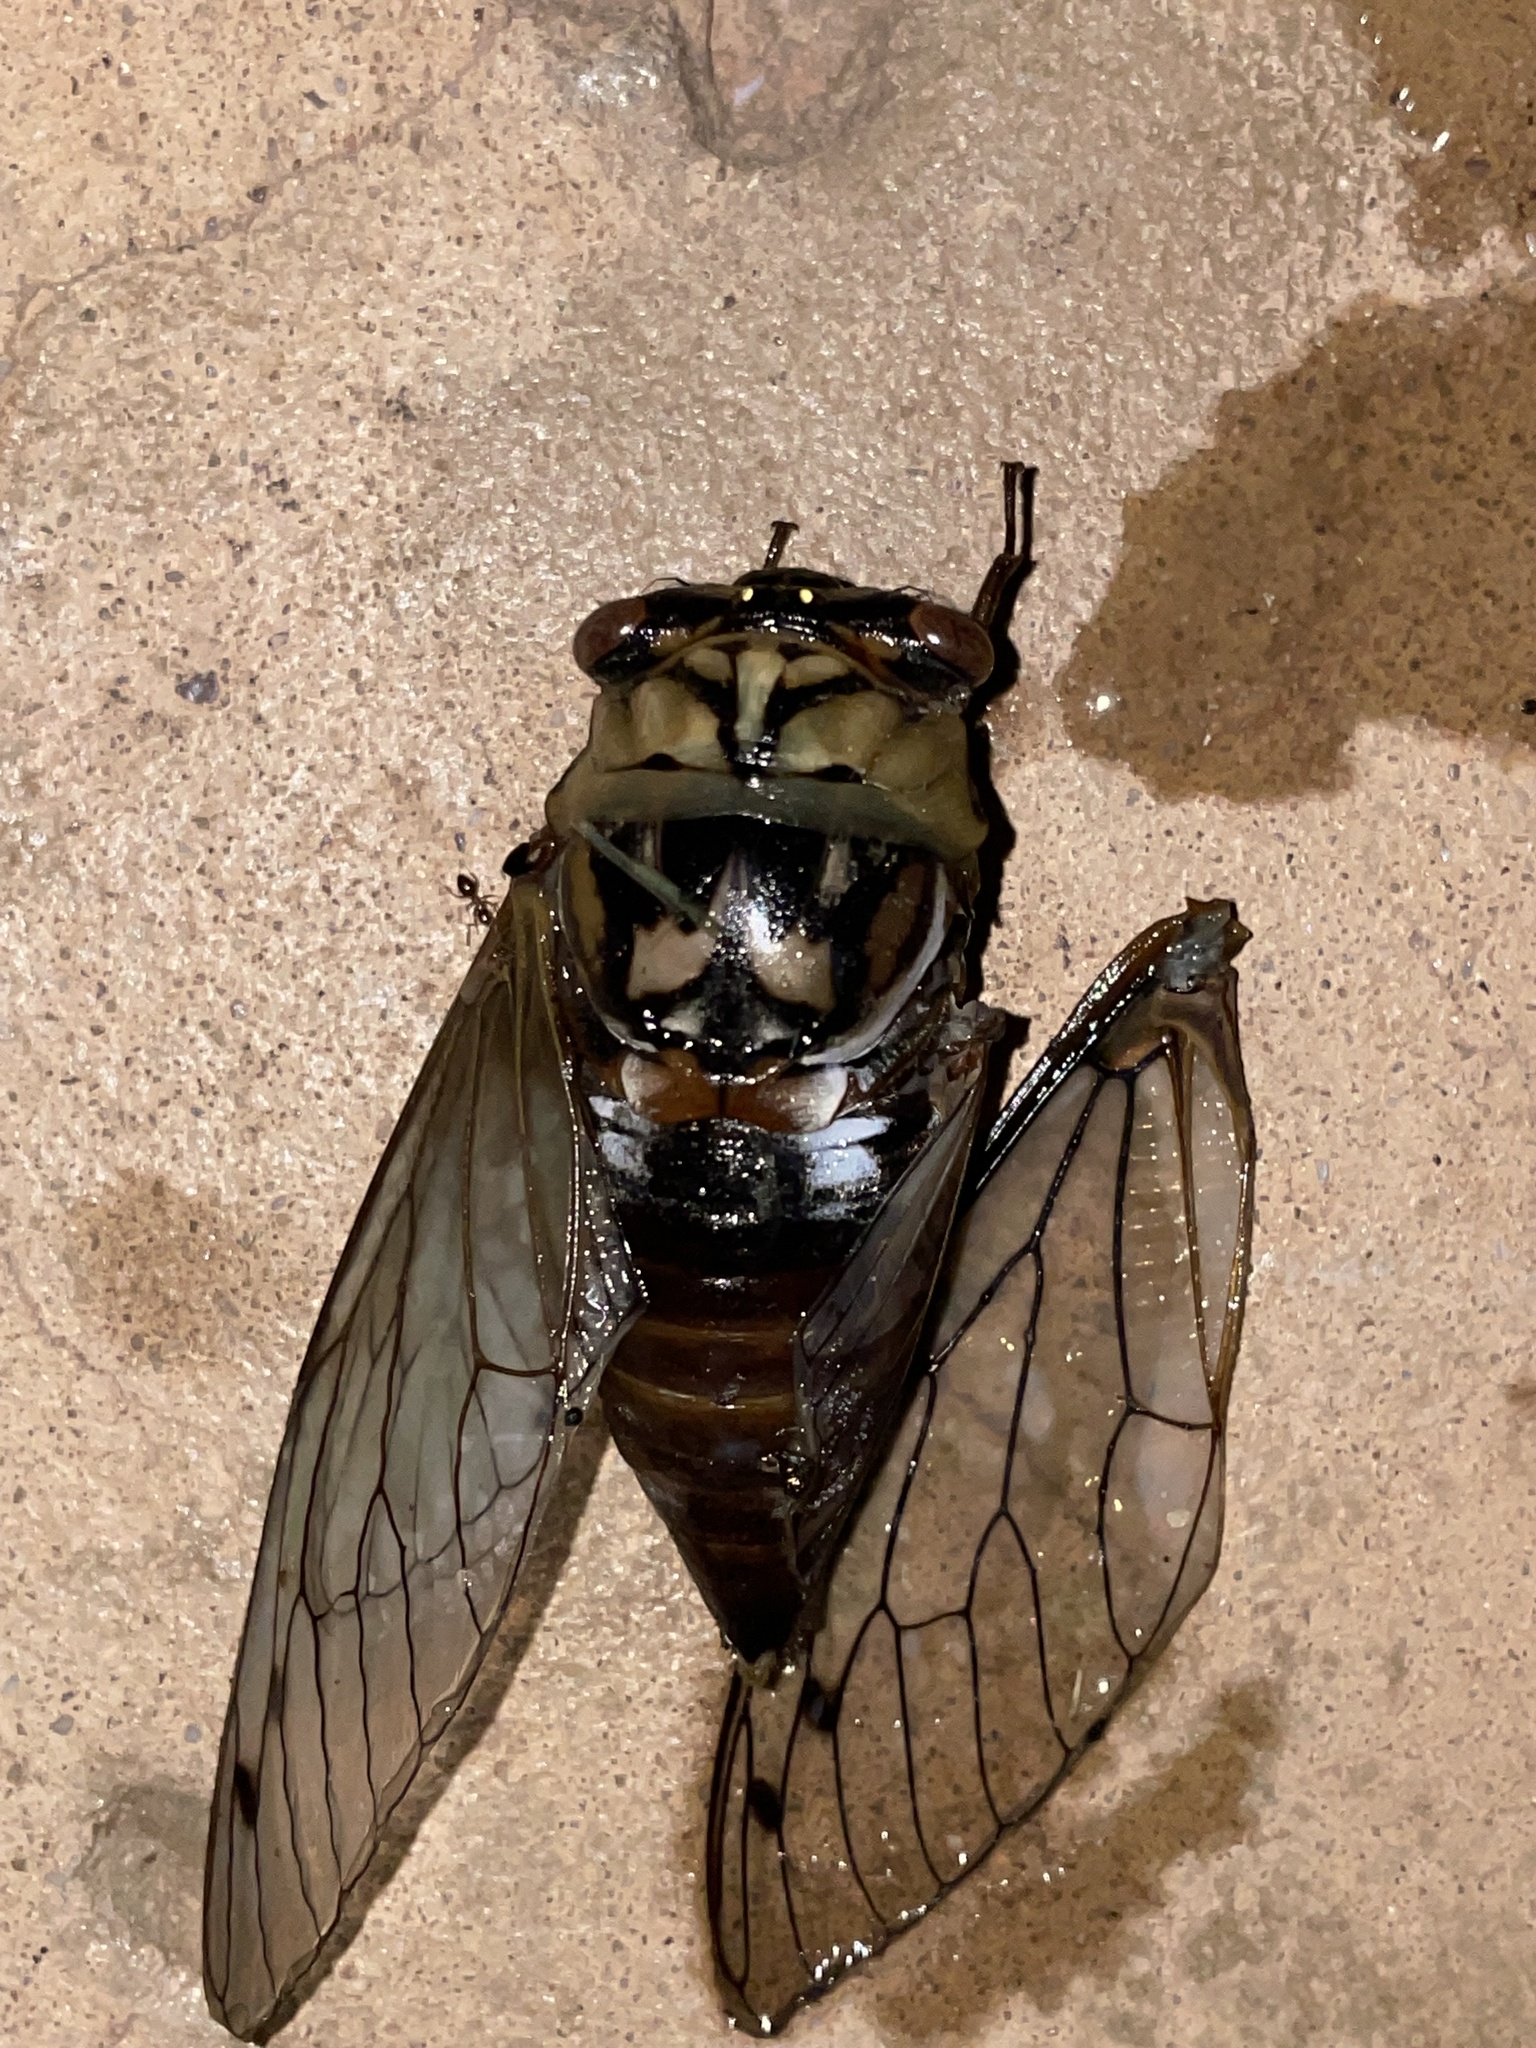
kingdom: Animalia
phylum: Arthropoda
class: Insecta
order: Hemiptera
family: Cicadidae
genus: Megatibicen
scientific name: Megatibicen resh
